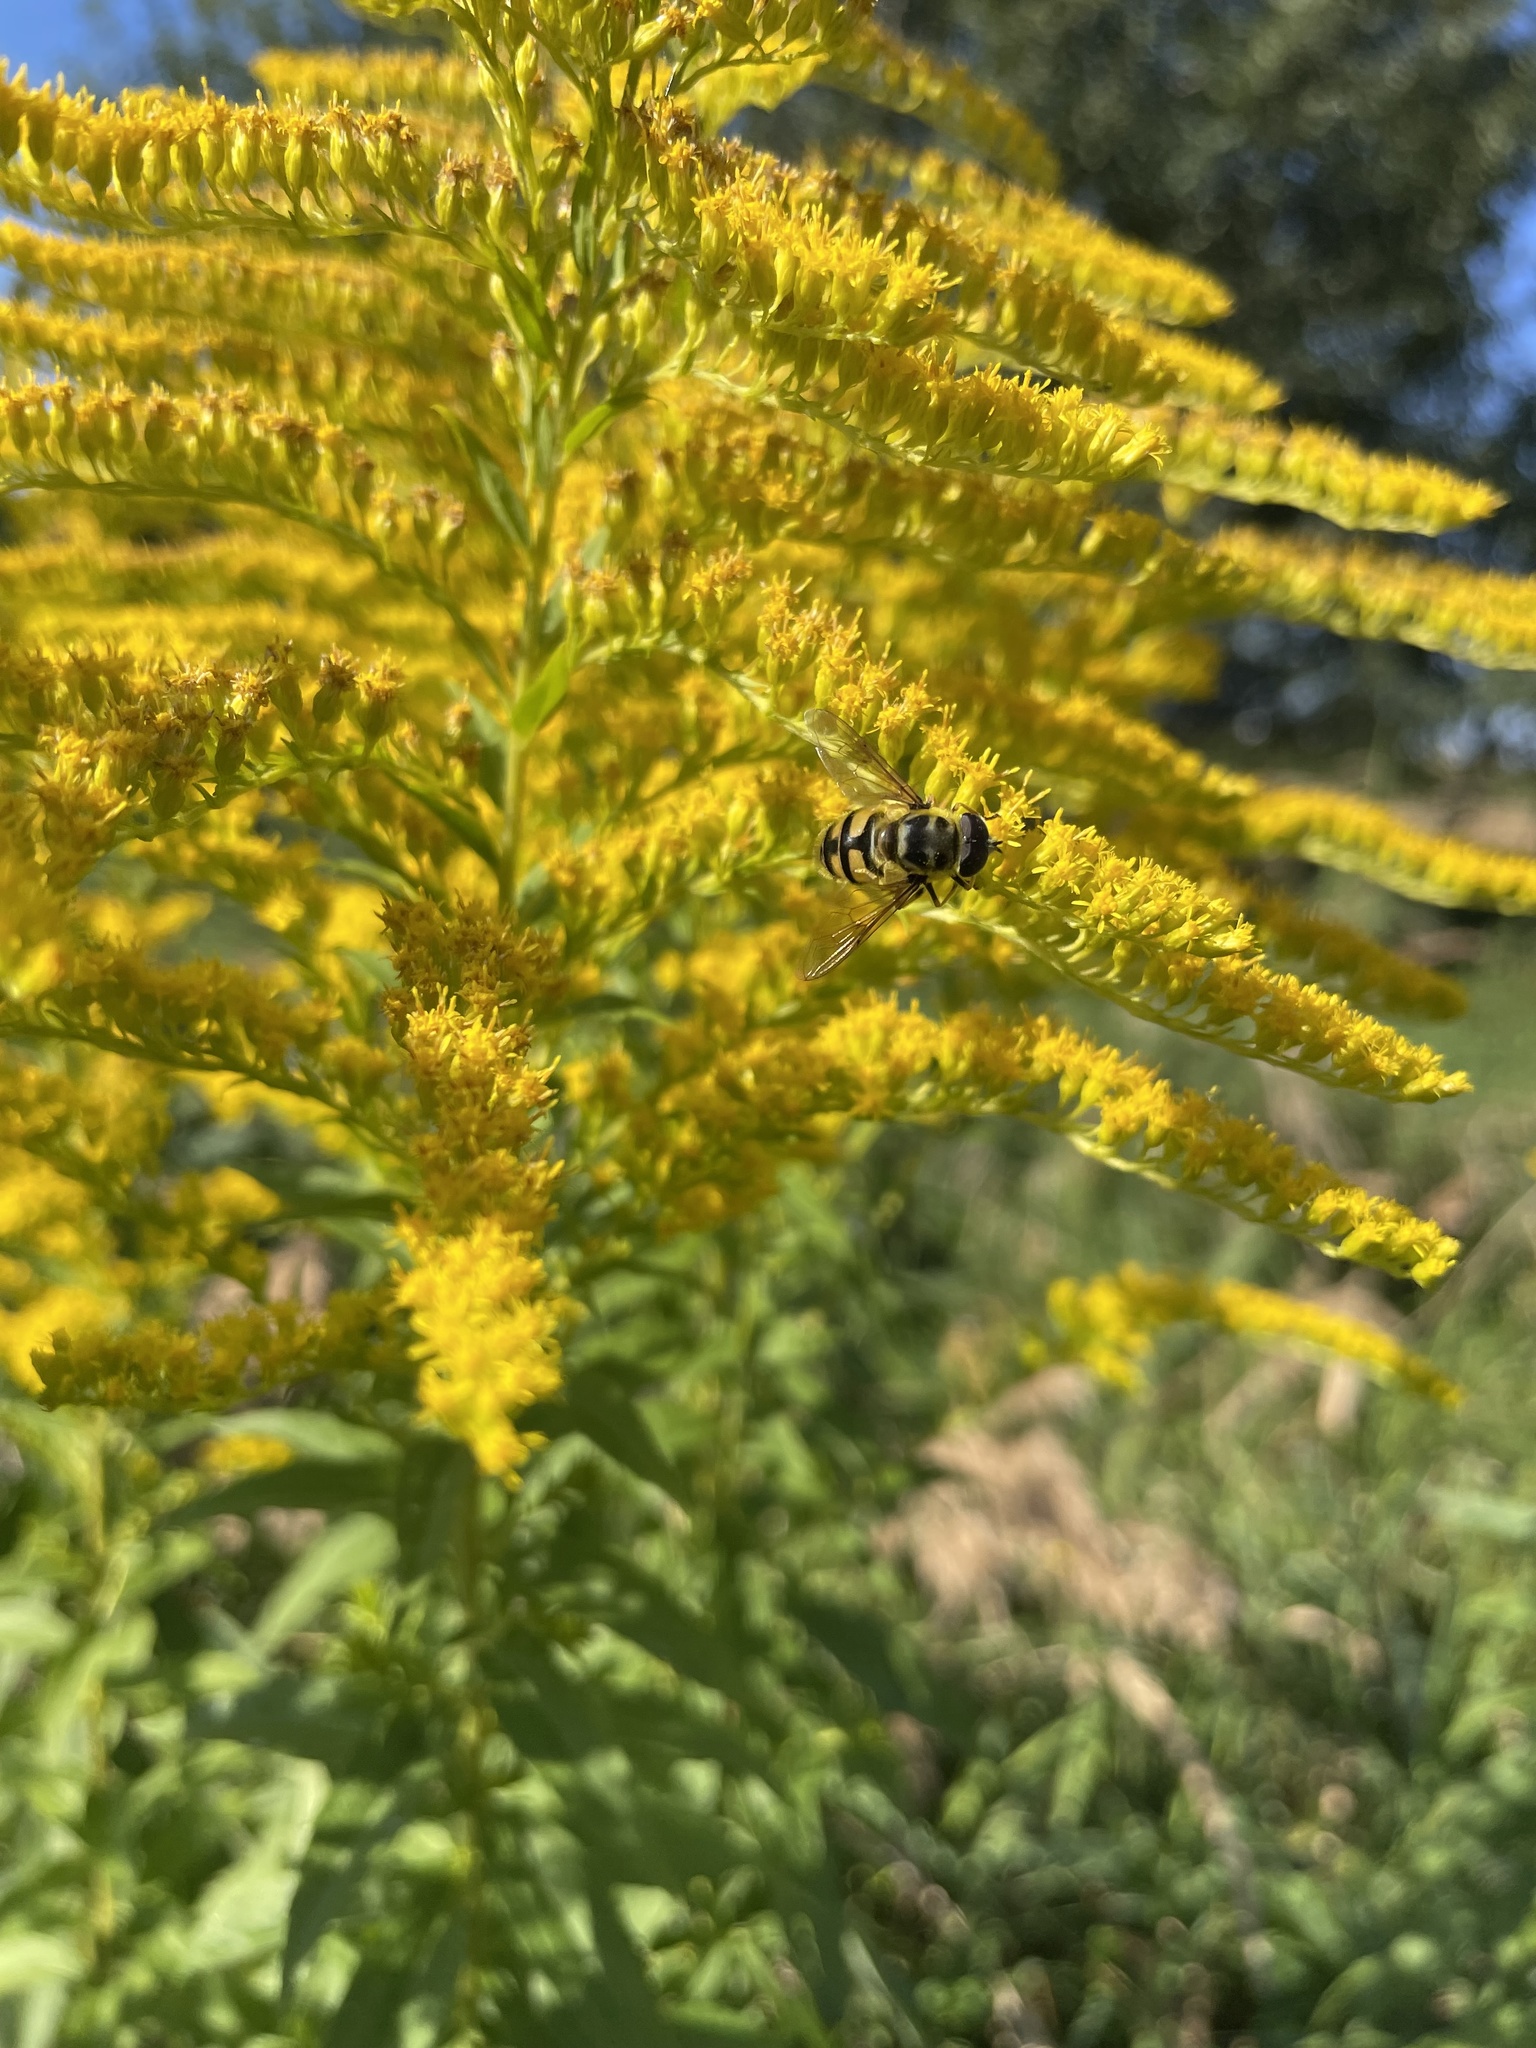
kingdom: Animalia
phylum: Arthropoda
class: Insecta
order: Diptera
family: Syrphidae
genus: Myathropa
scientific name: Myathropa florea
